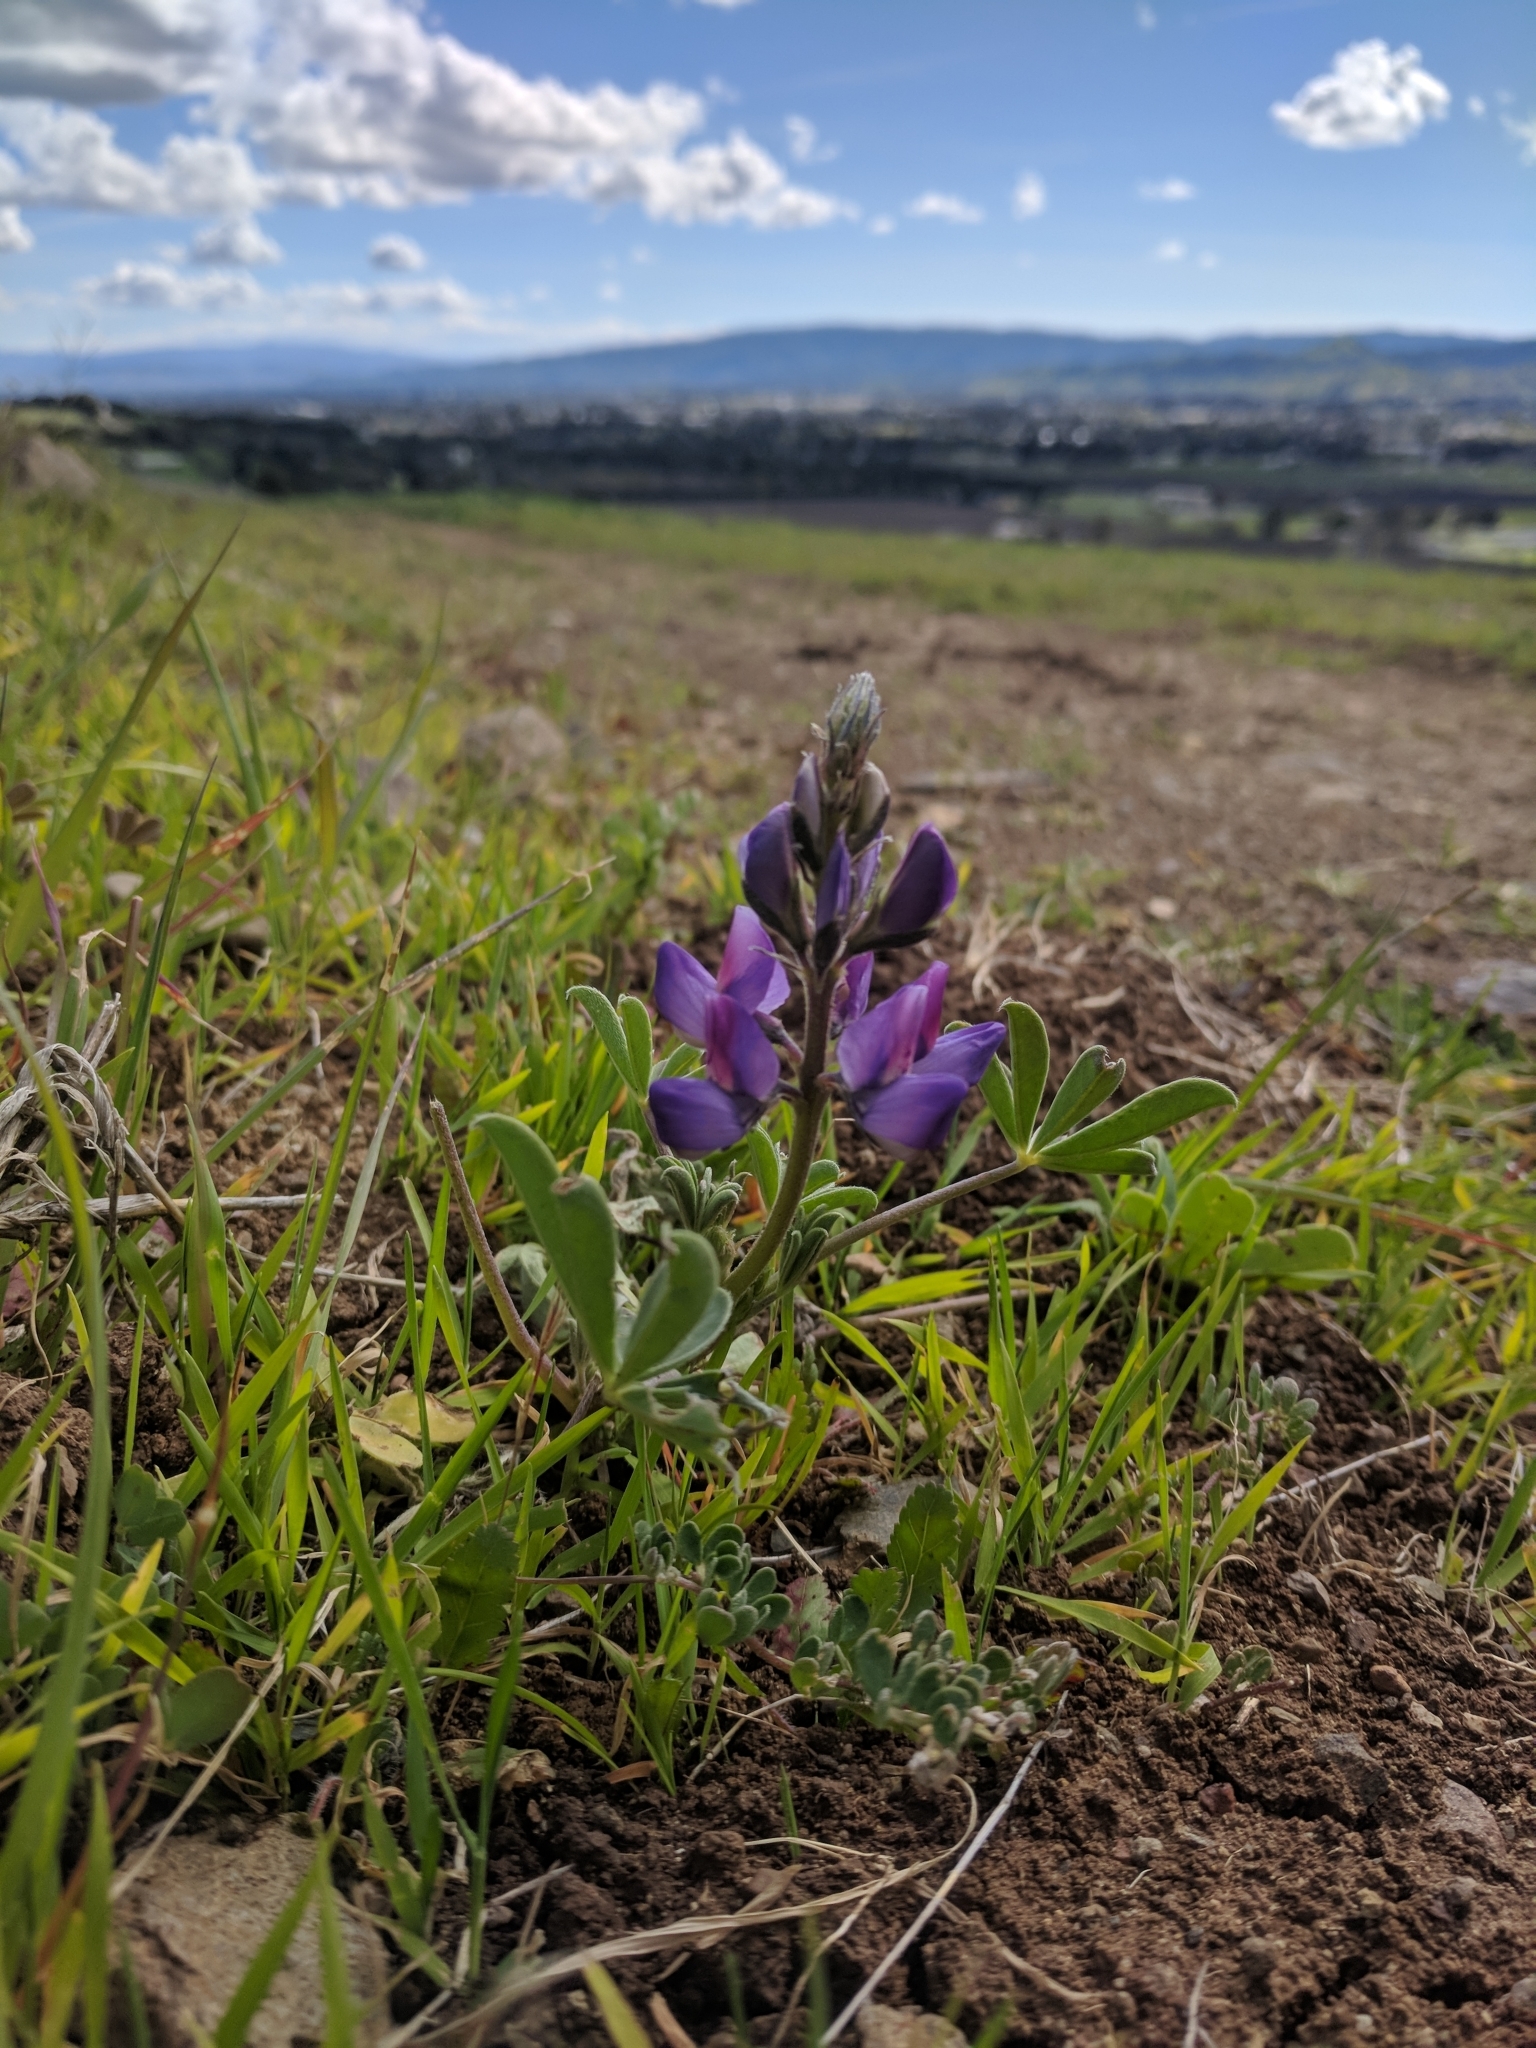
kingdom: Plantae
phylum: Tracheophyta
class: Magnoliopsida
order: Fabales
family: Fabaceae
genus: Lupinus
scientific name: Lupinus succulentus
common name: Arroyo lupine
